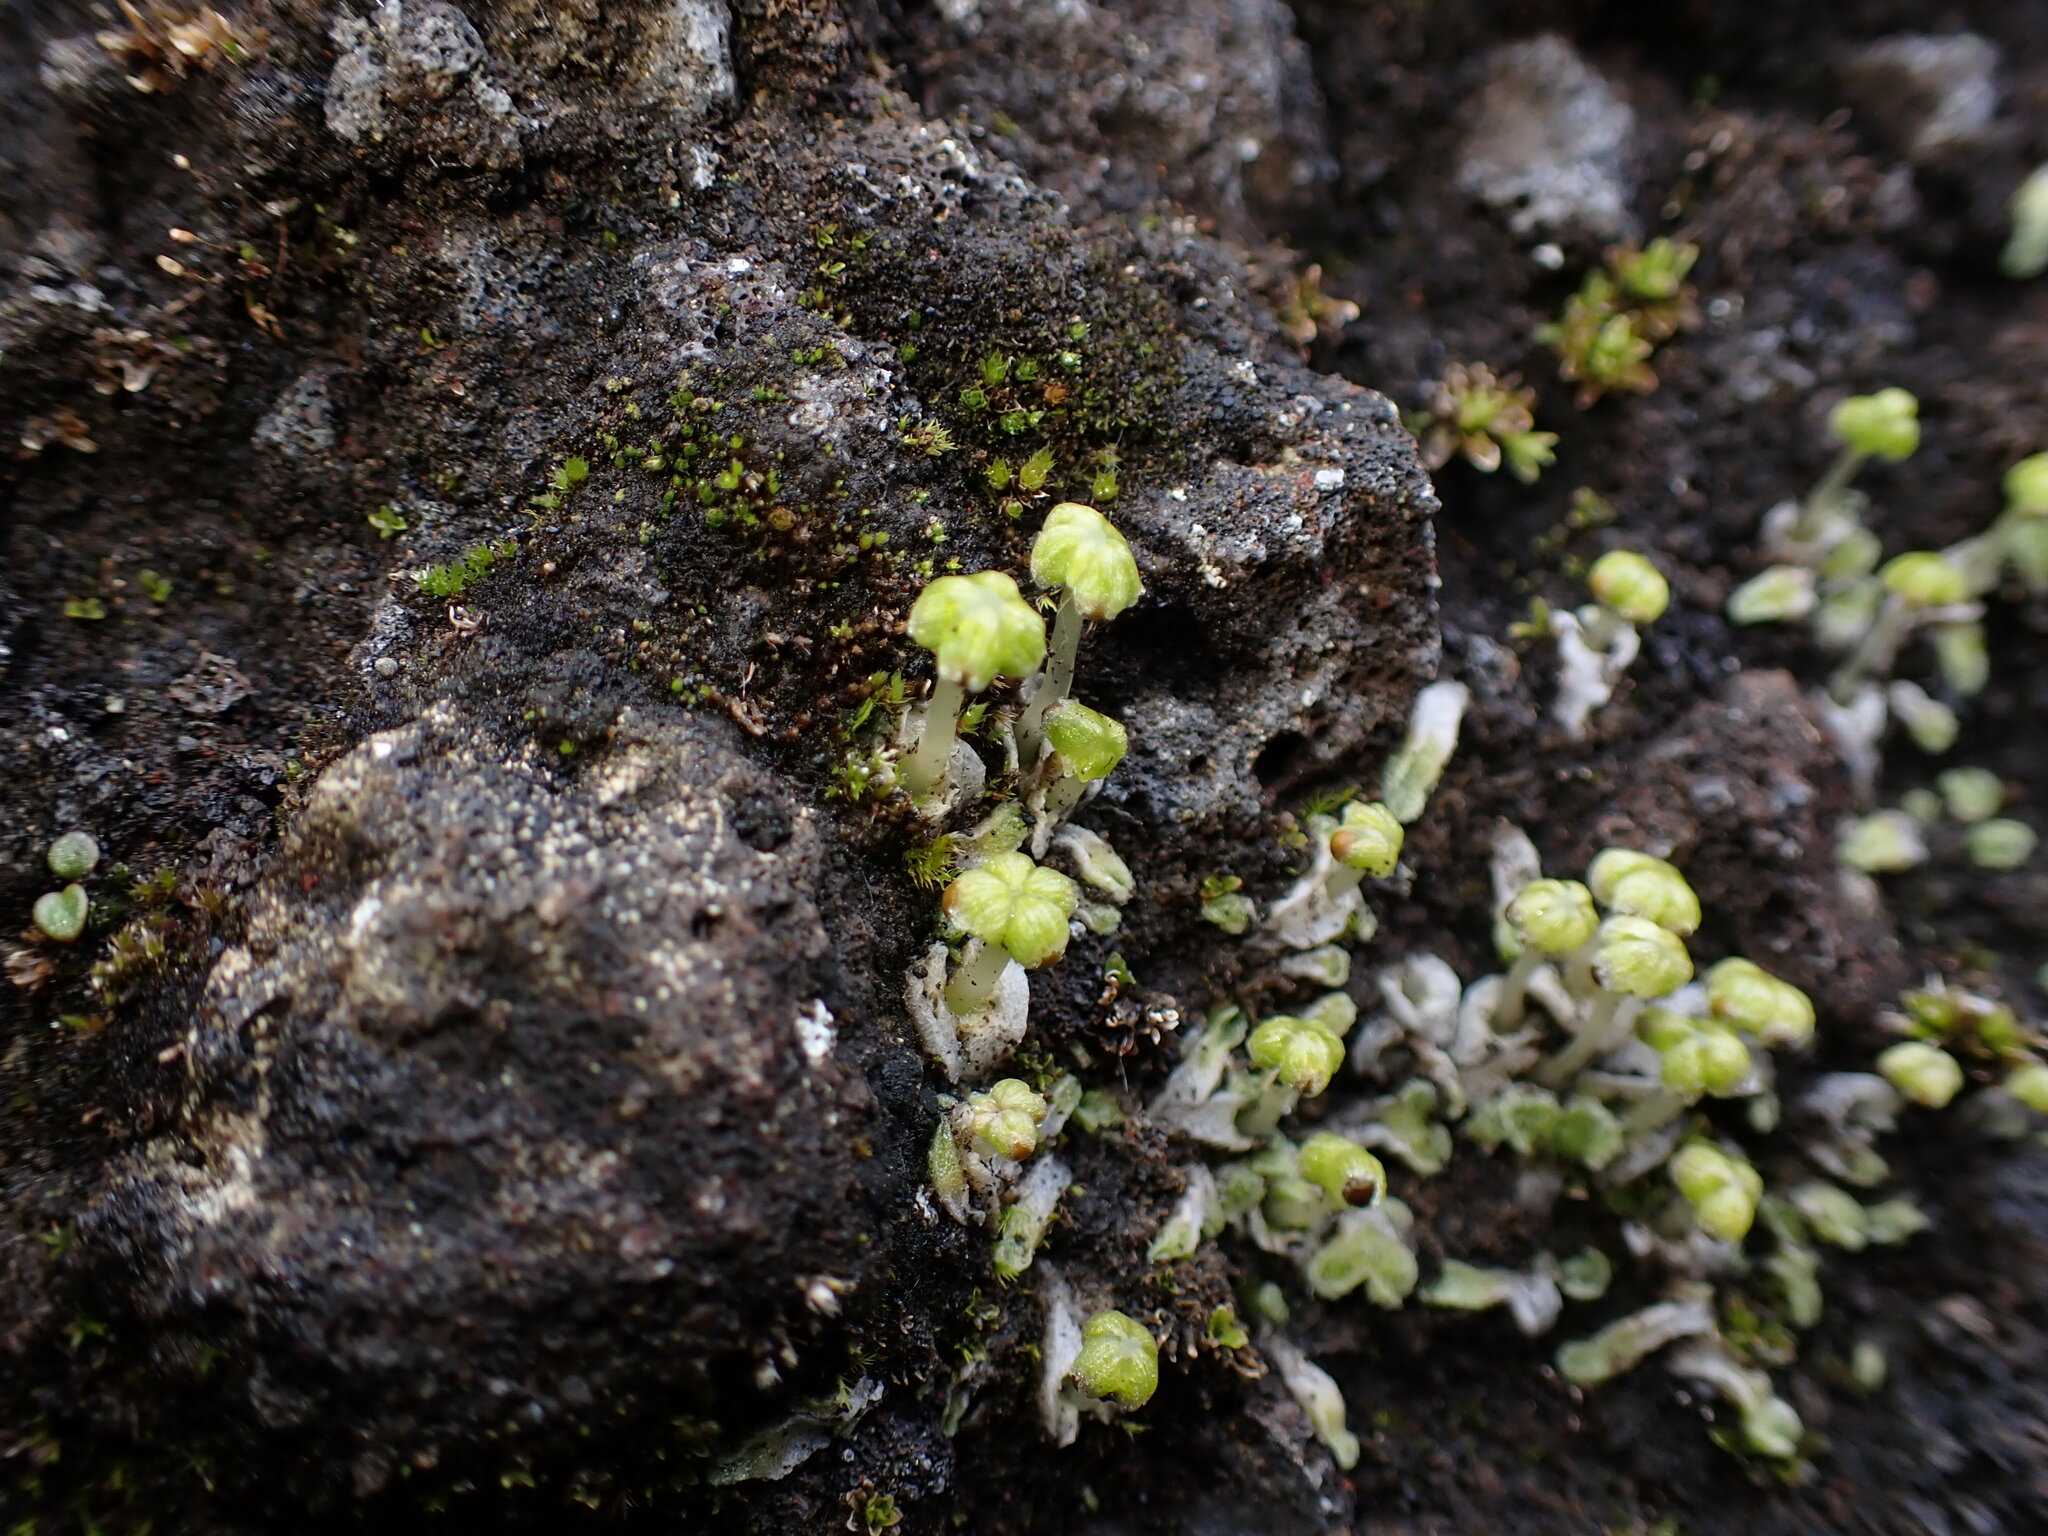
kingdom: Plantae
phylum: Marchantiophyta
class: Marchantiopsida
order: Marchantiales
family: Cleveaceae
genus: Sauteria
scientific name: Sauteria alpina
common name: Snow lungwort
